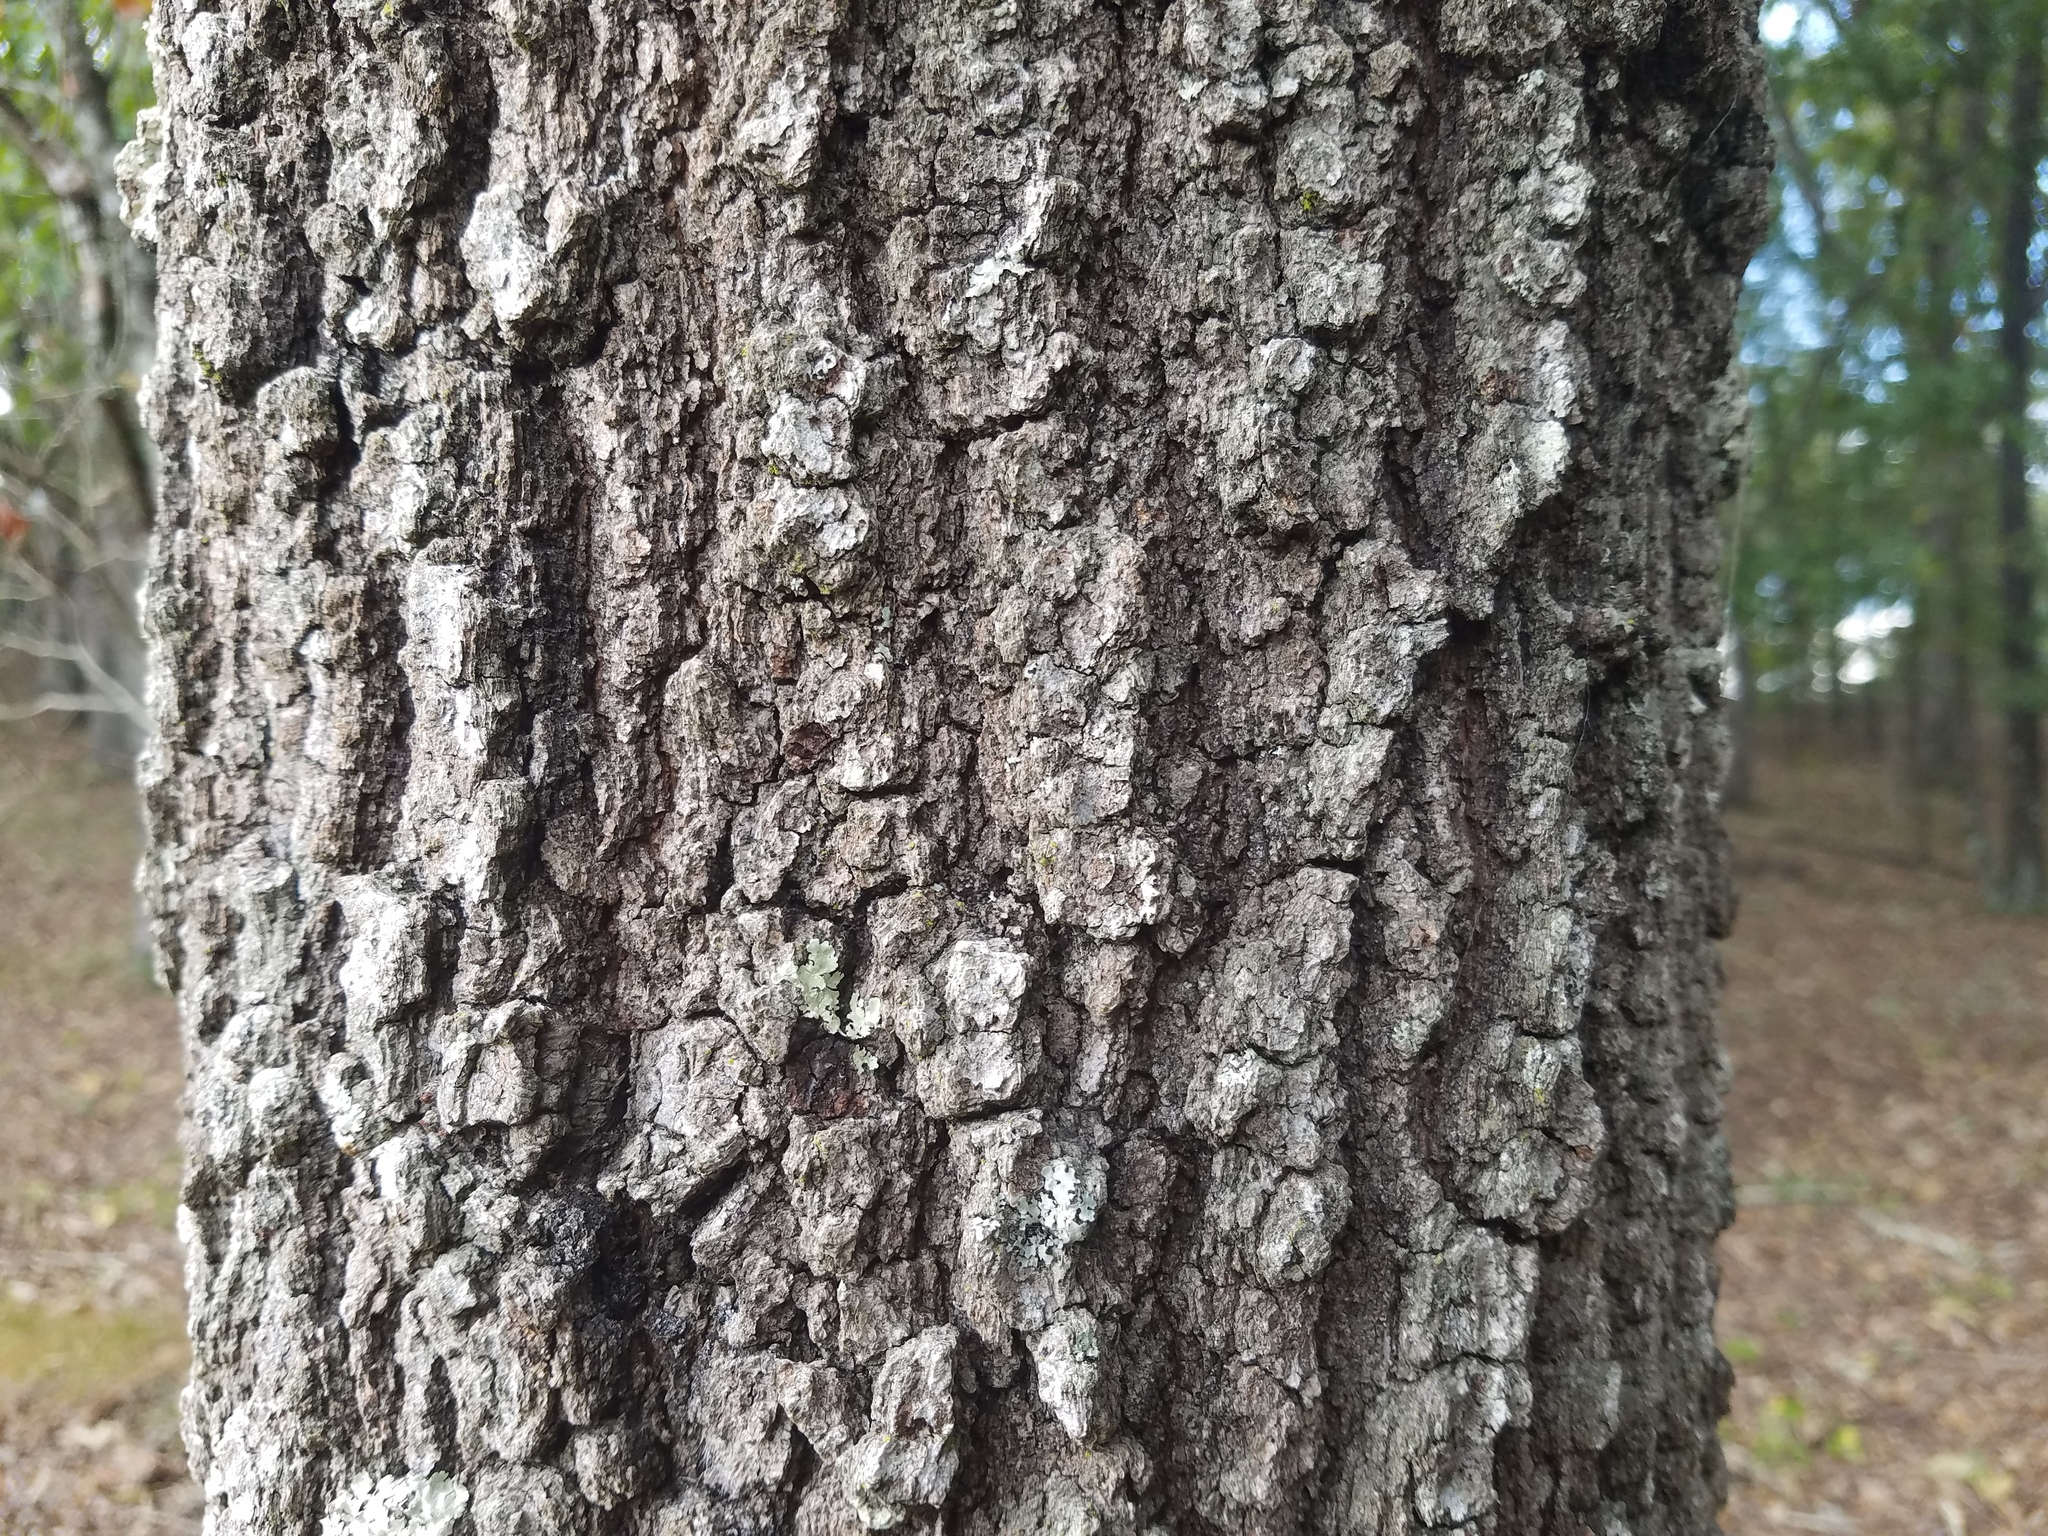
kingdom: Plantae
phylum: Tracheophyta
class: Magnoliopsida
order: Fagales
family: Fagaceae
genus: Quercus
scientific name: Quercus marilandica
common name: Blackjack oak
